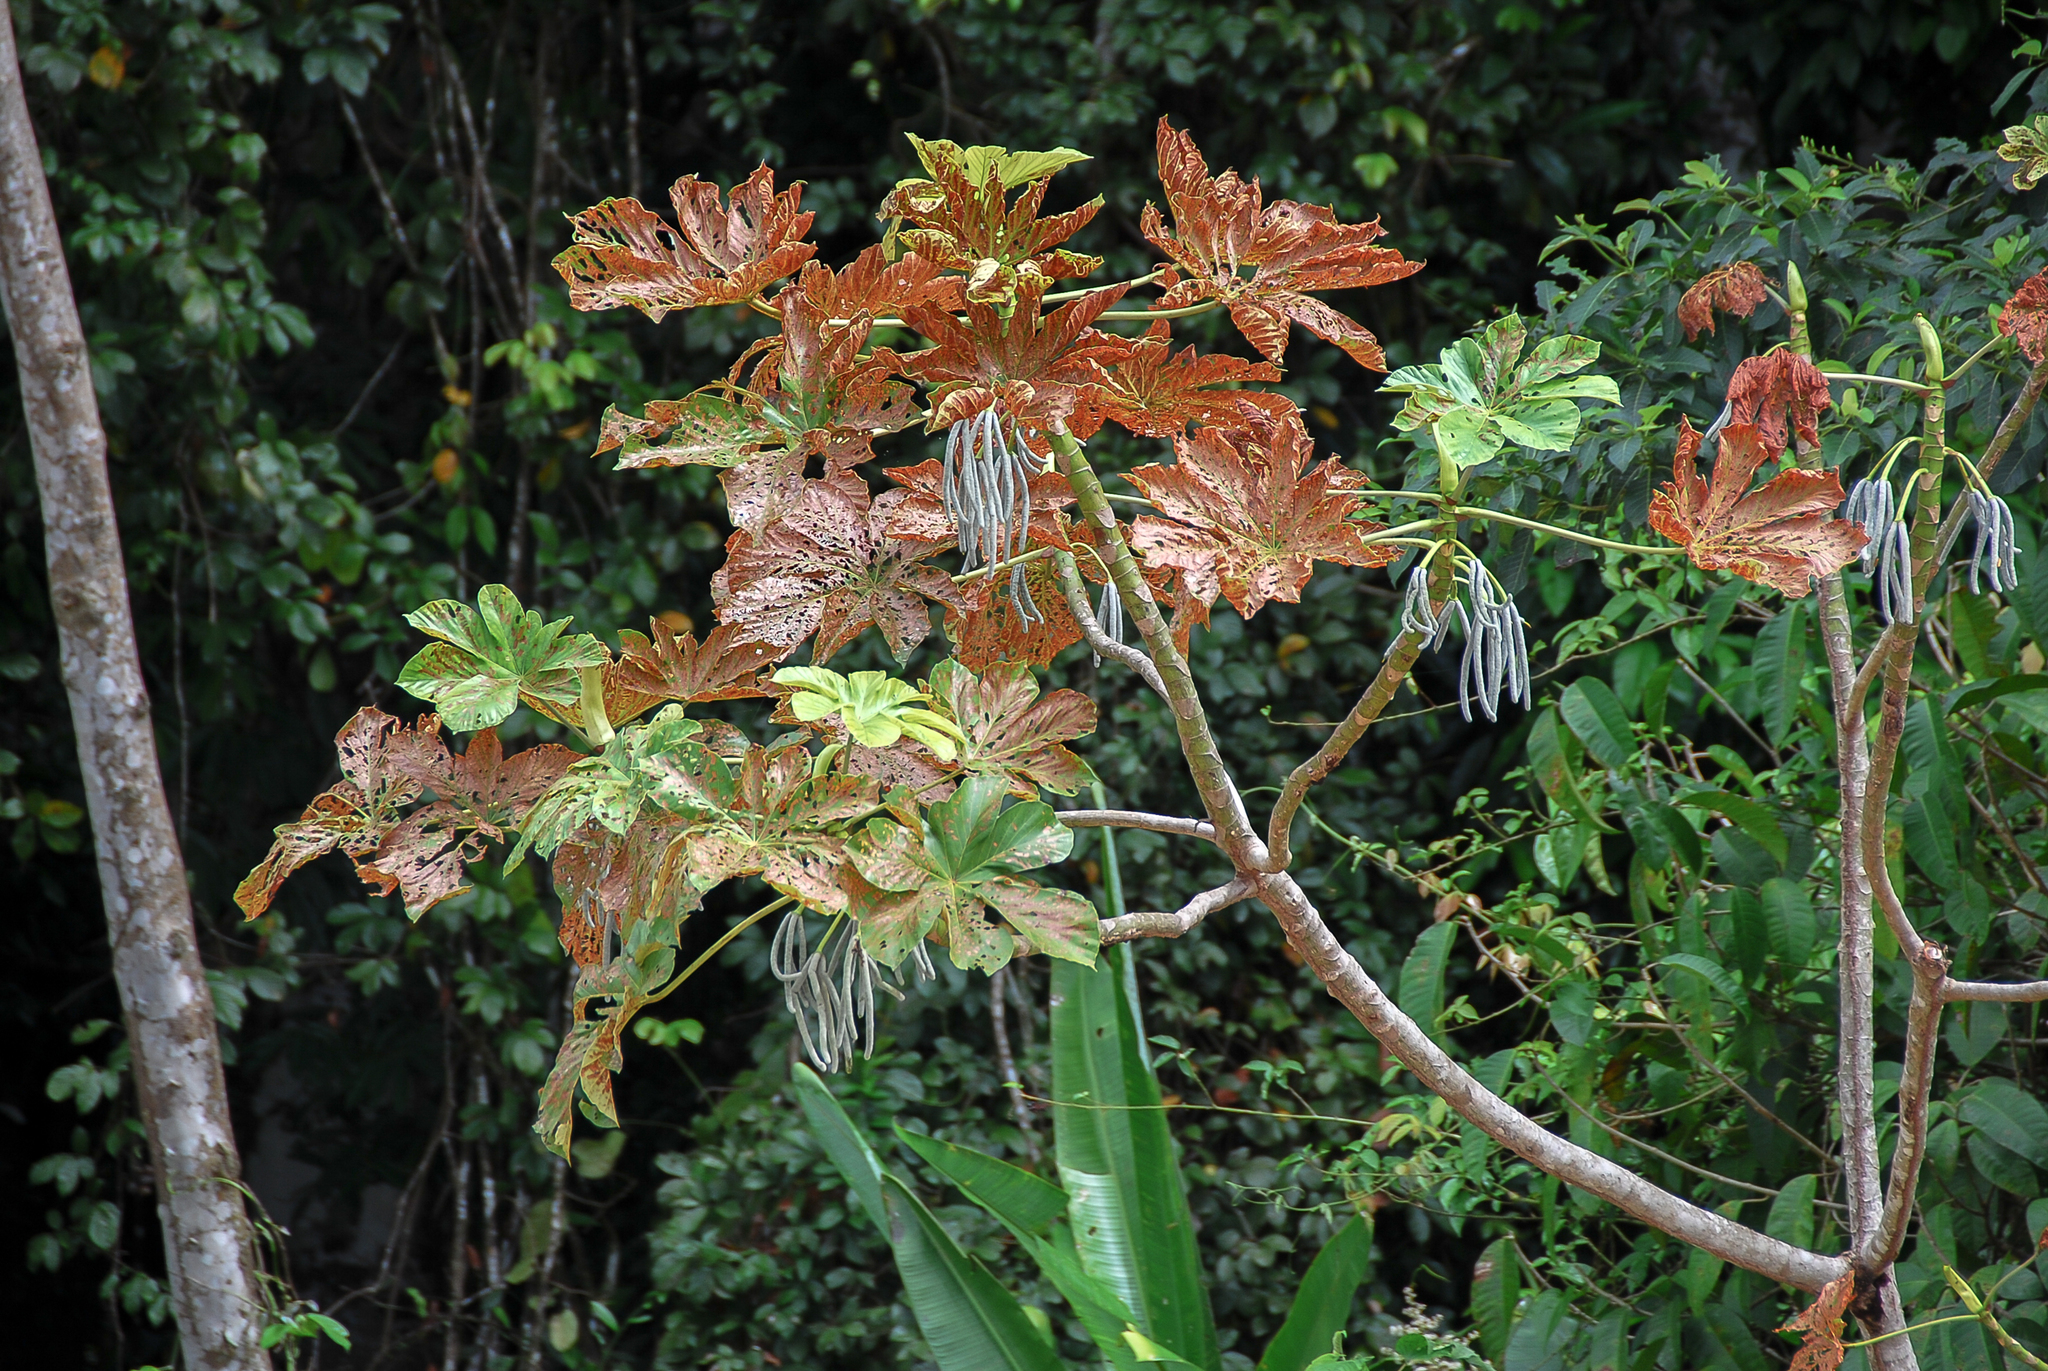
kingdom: Plantae
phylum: Tracheophyta
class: Magnoliopsida
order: Rosales
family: Urticaceae
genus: Cecropia
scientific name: Cecropia membranacea
